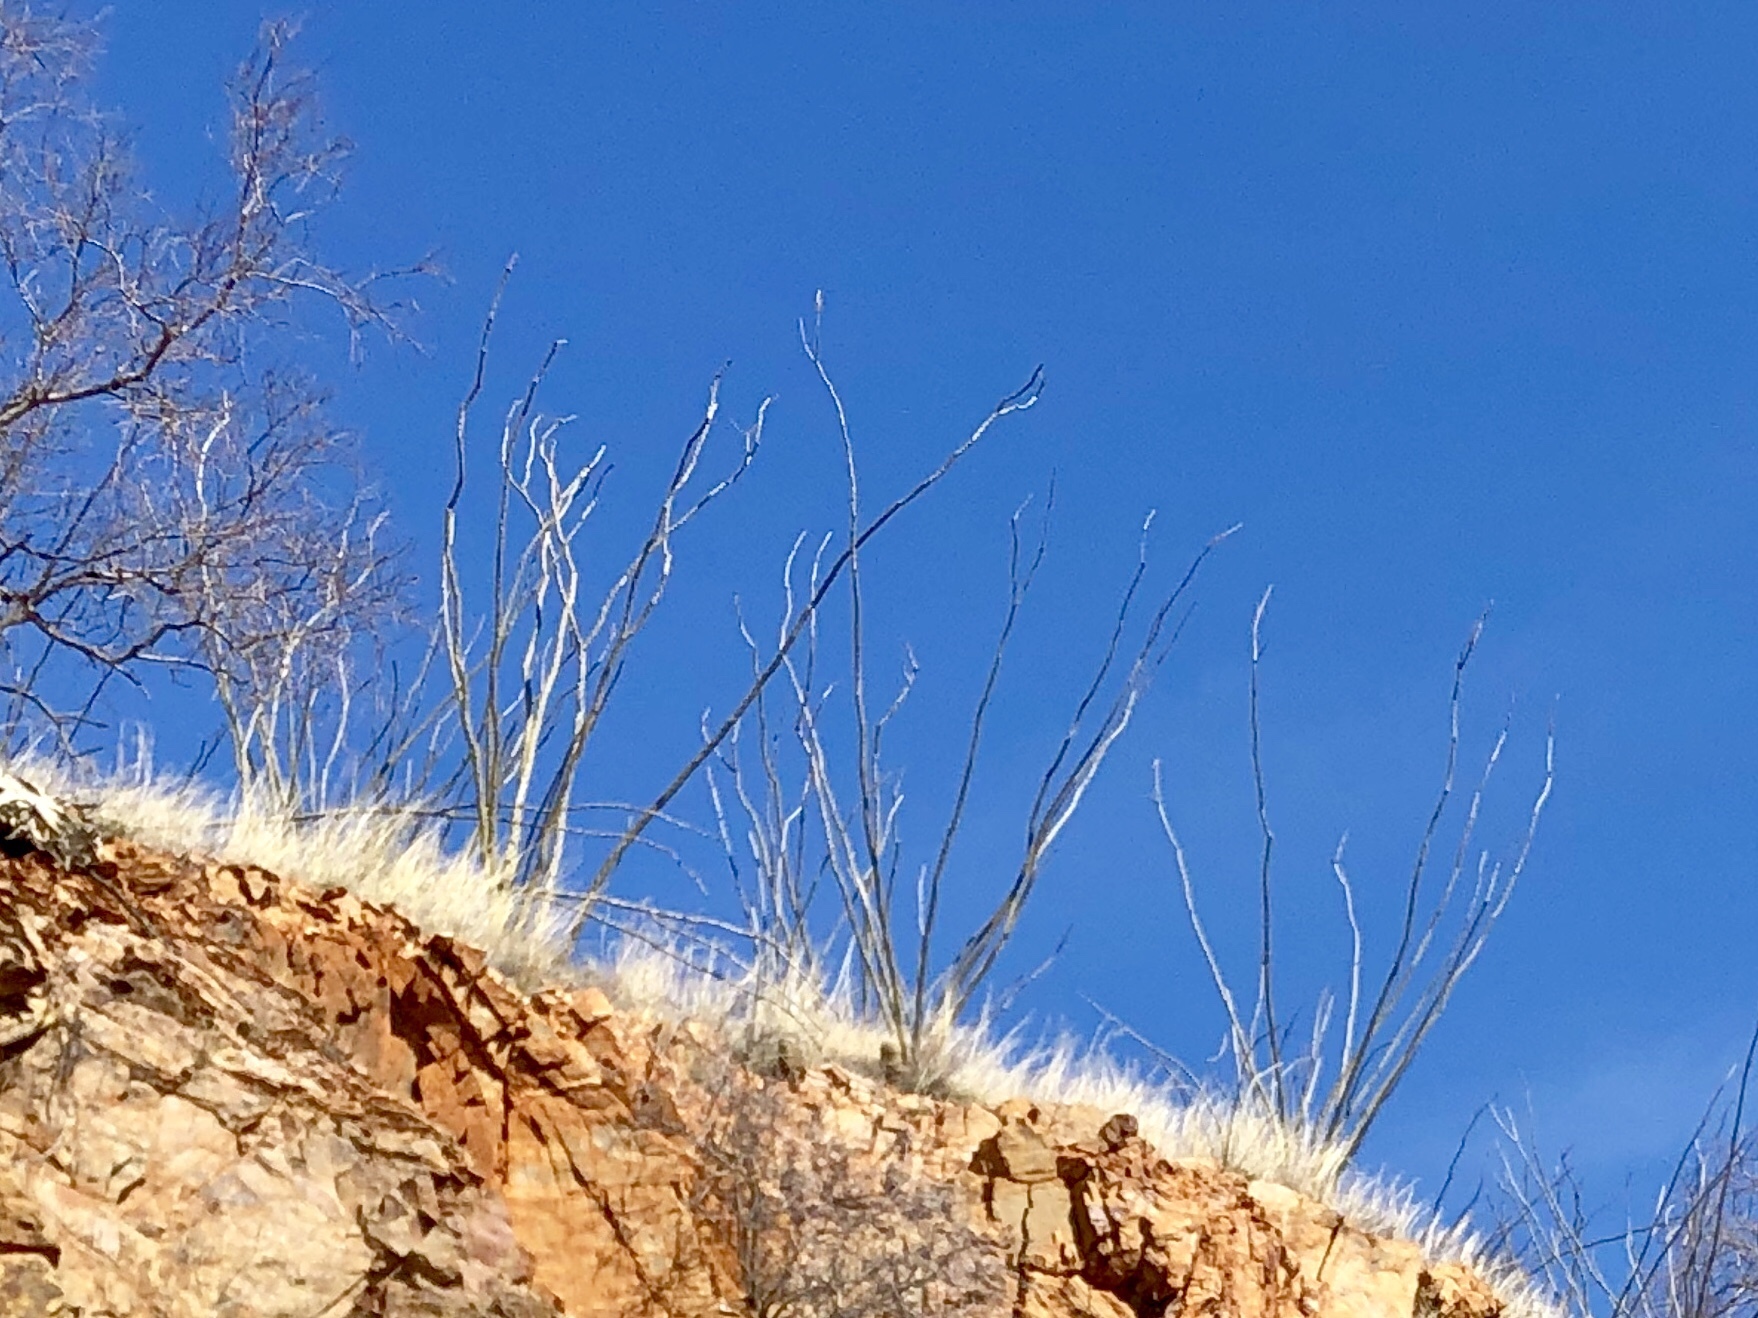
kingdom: Plantae
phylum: Tracheophyta
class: Magnoliopsida
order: Ericales
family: Fouquieriaceae
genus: Fouquieria
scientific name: Fouquieria splendens
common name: Vine-cactus
